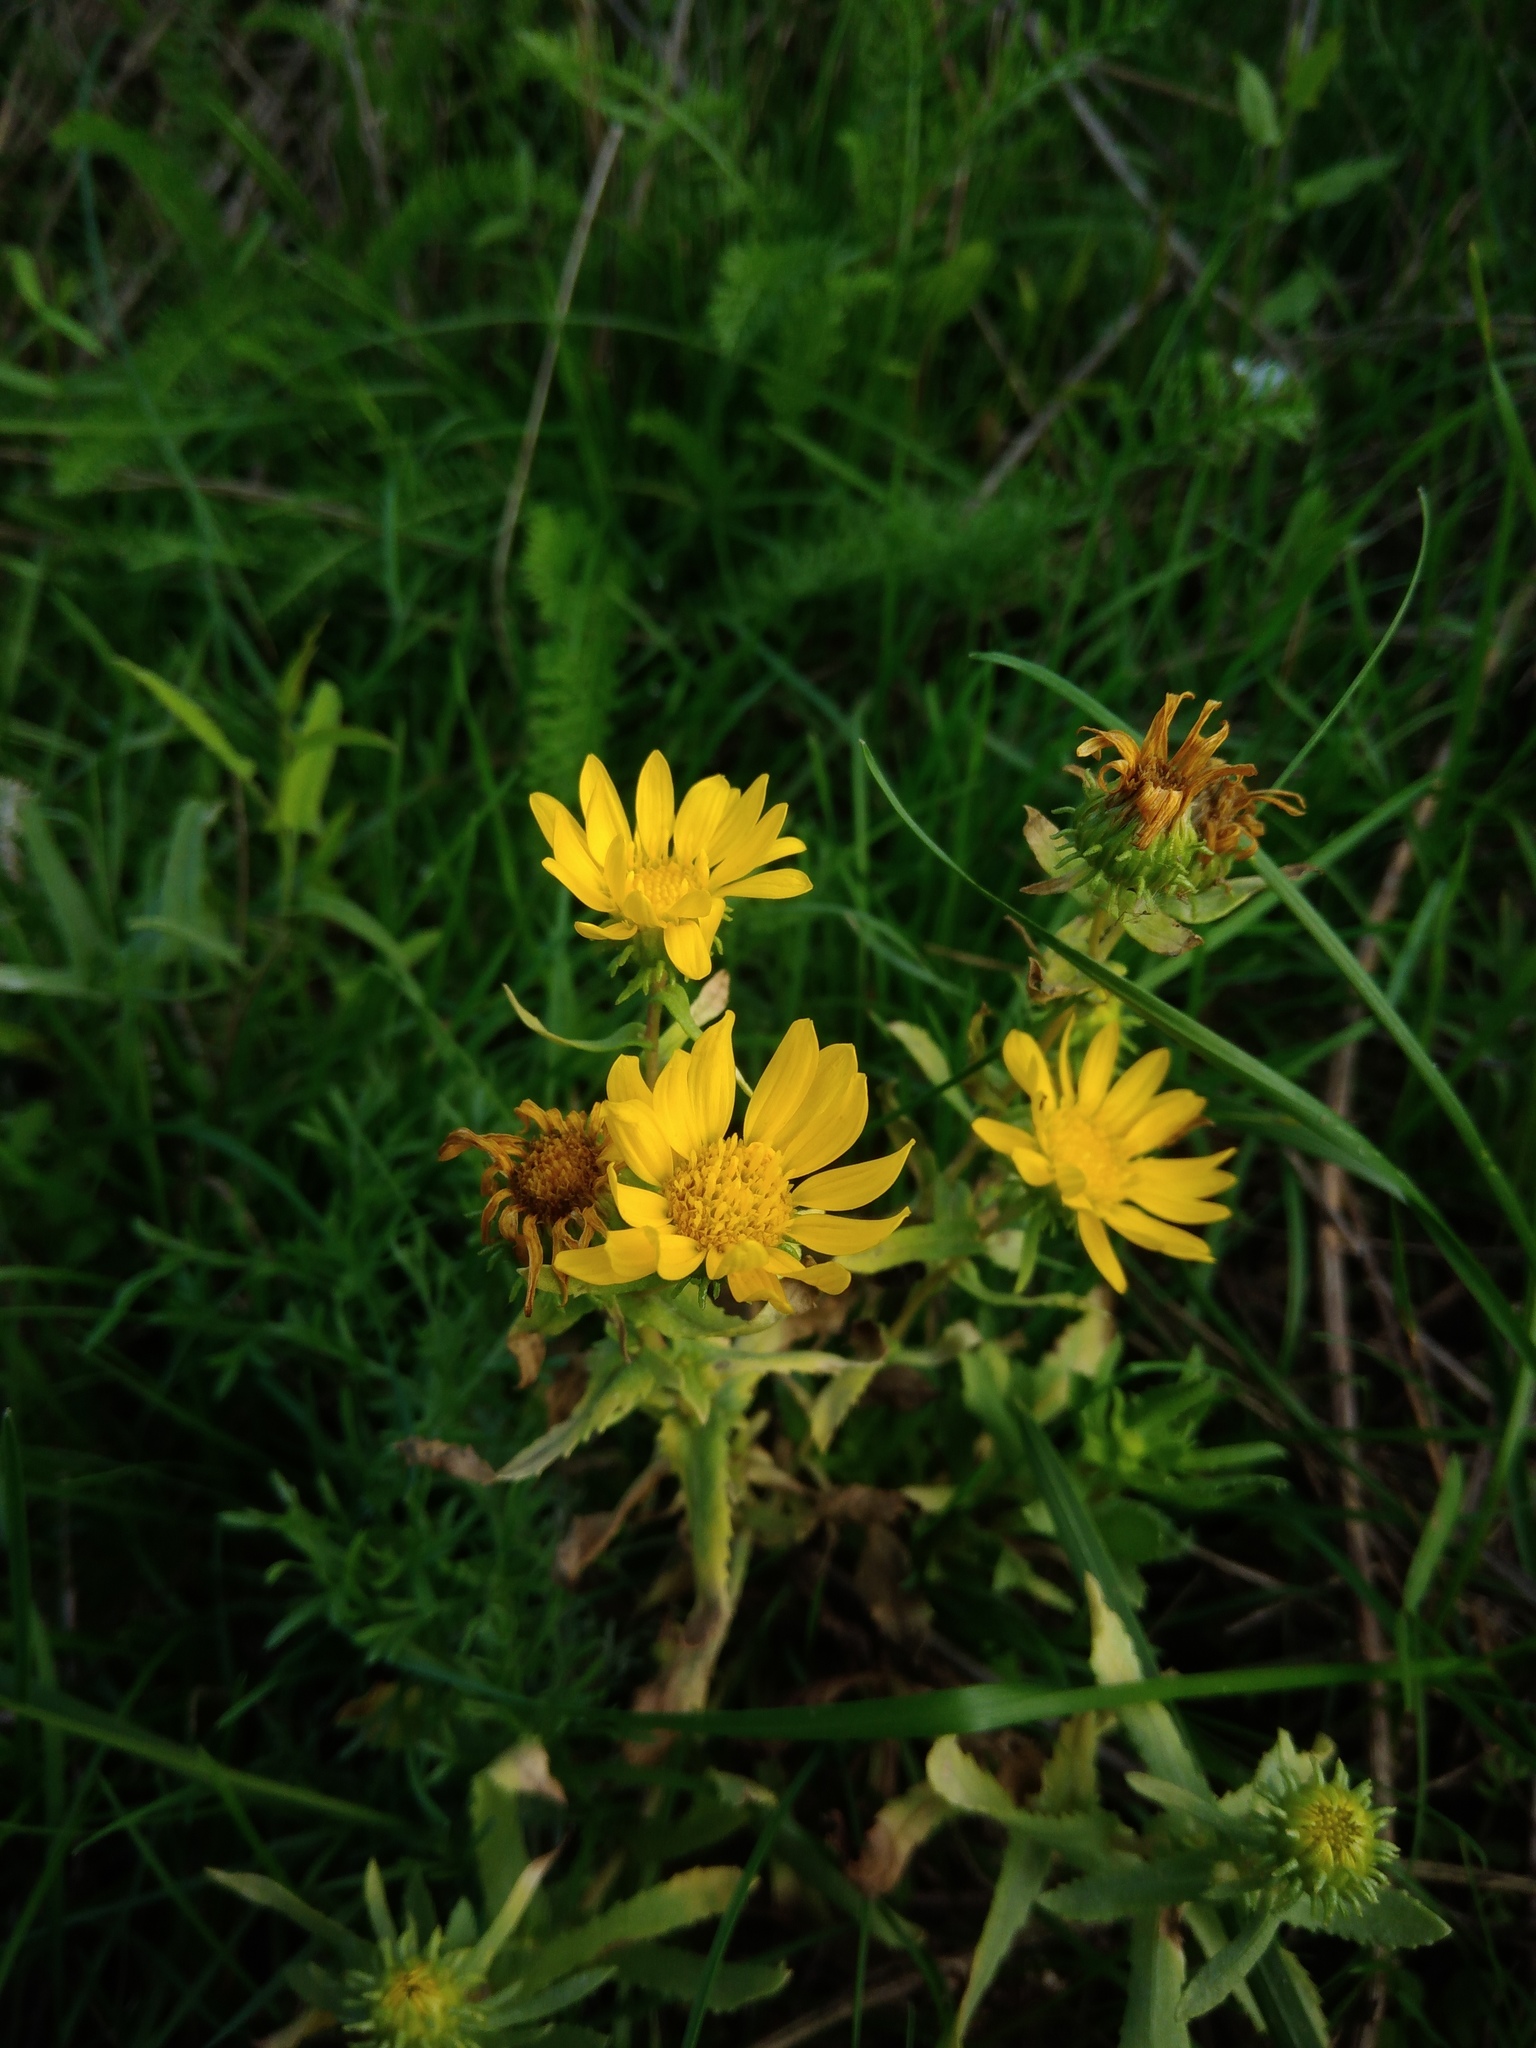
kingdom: Plantae
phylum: Tracheophyta
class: Magnoliopsida
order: Asterales
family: Asteraceae
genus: Grindelia
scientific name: Grindelia squarrosa
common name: Curly-cup gumweed
